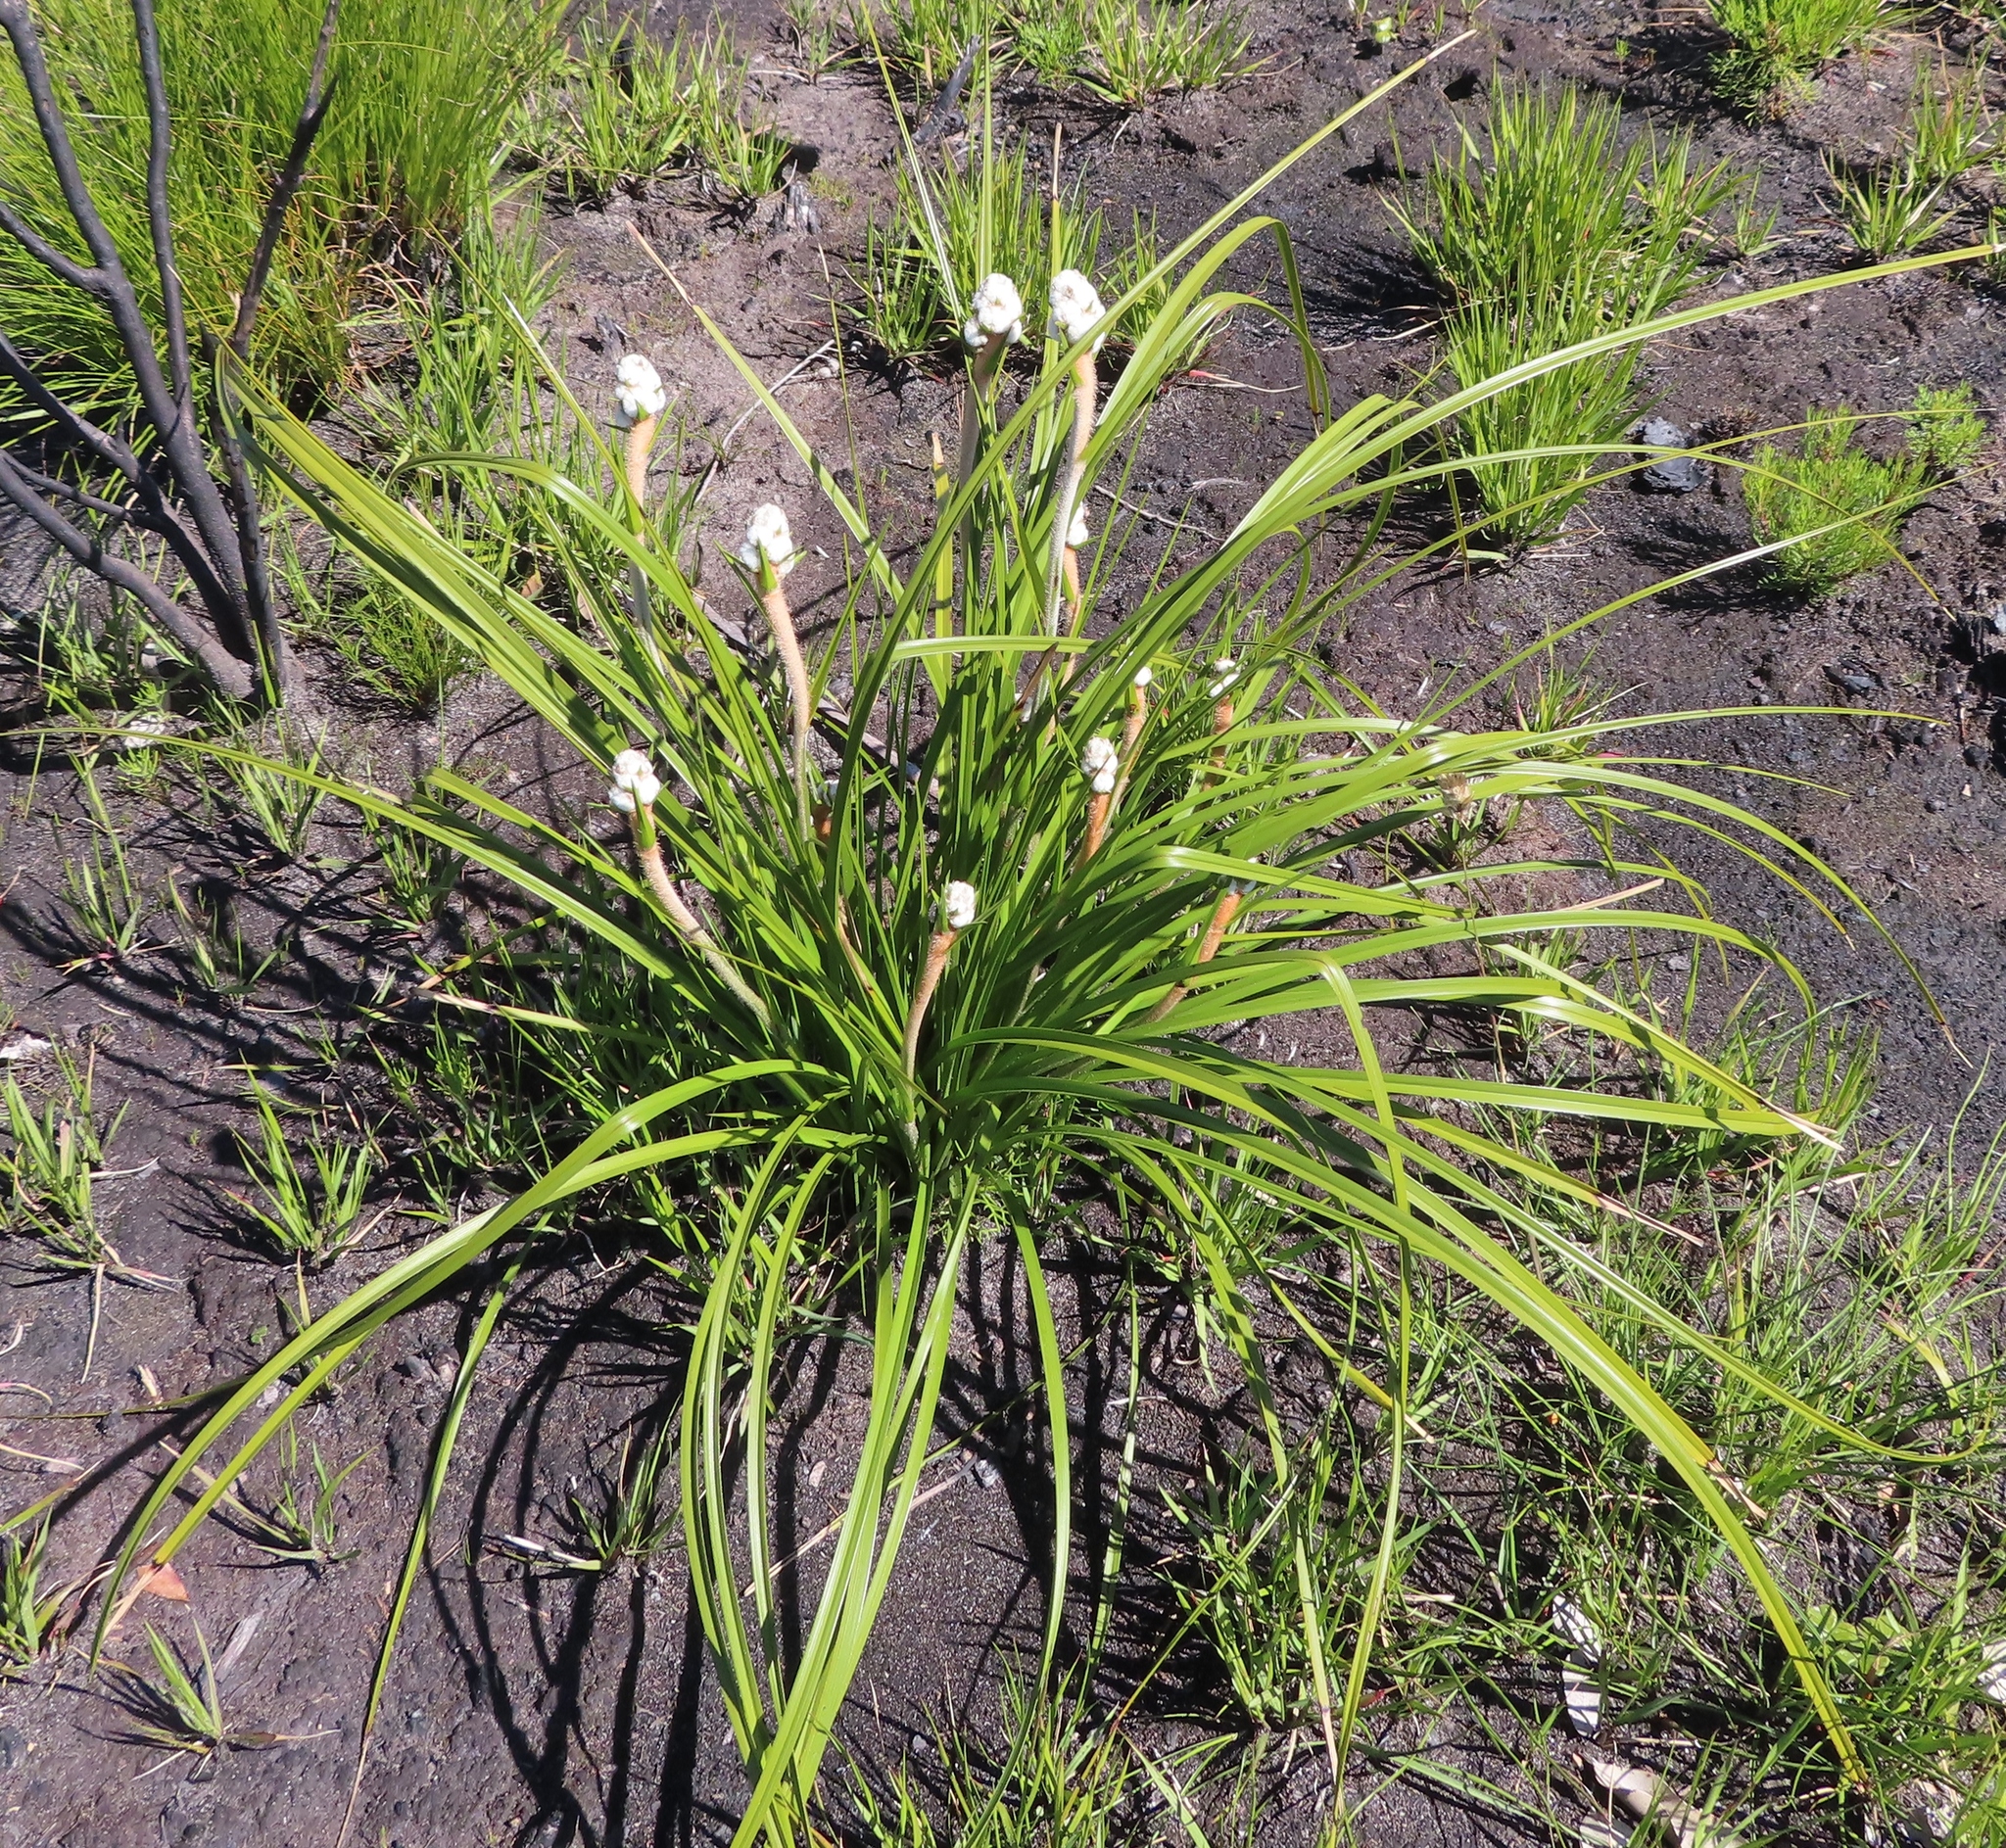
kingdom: Plantae
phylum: Tracheophyta
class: Liliopsida
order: Asparagales
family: Lanariaceae
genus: Lanaria
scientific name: Lanaria lanata
